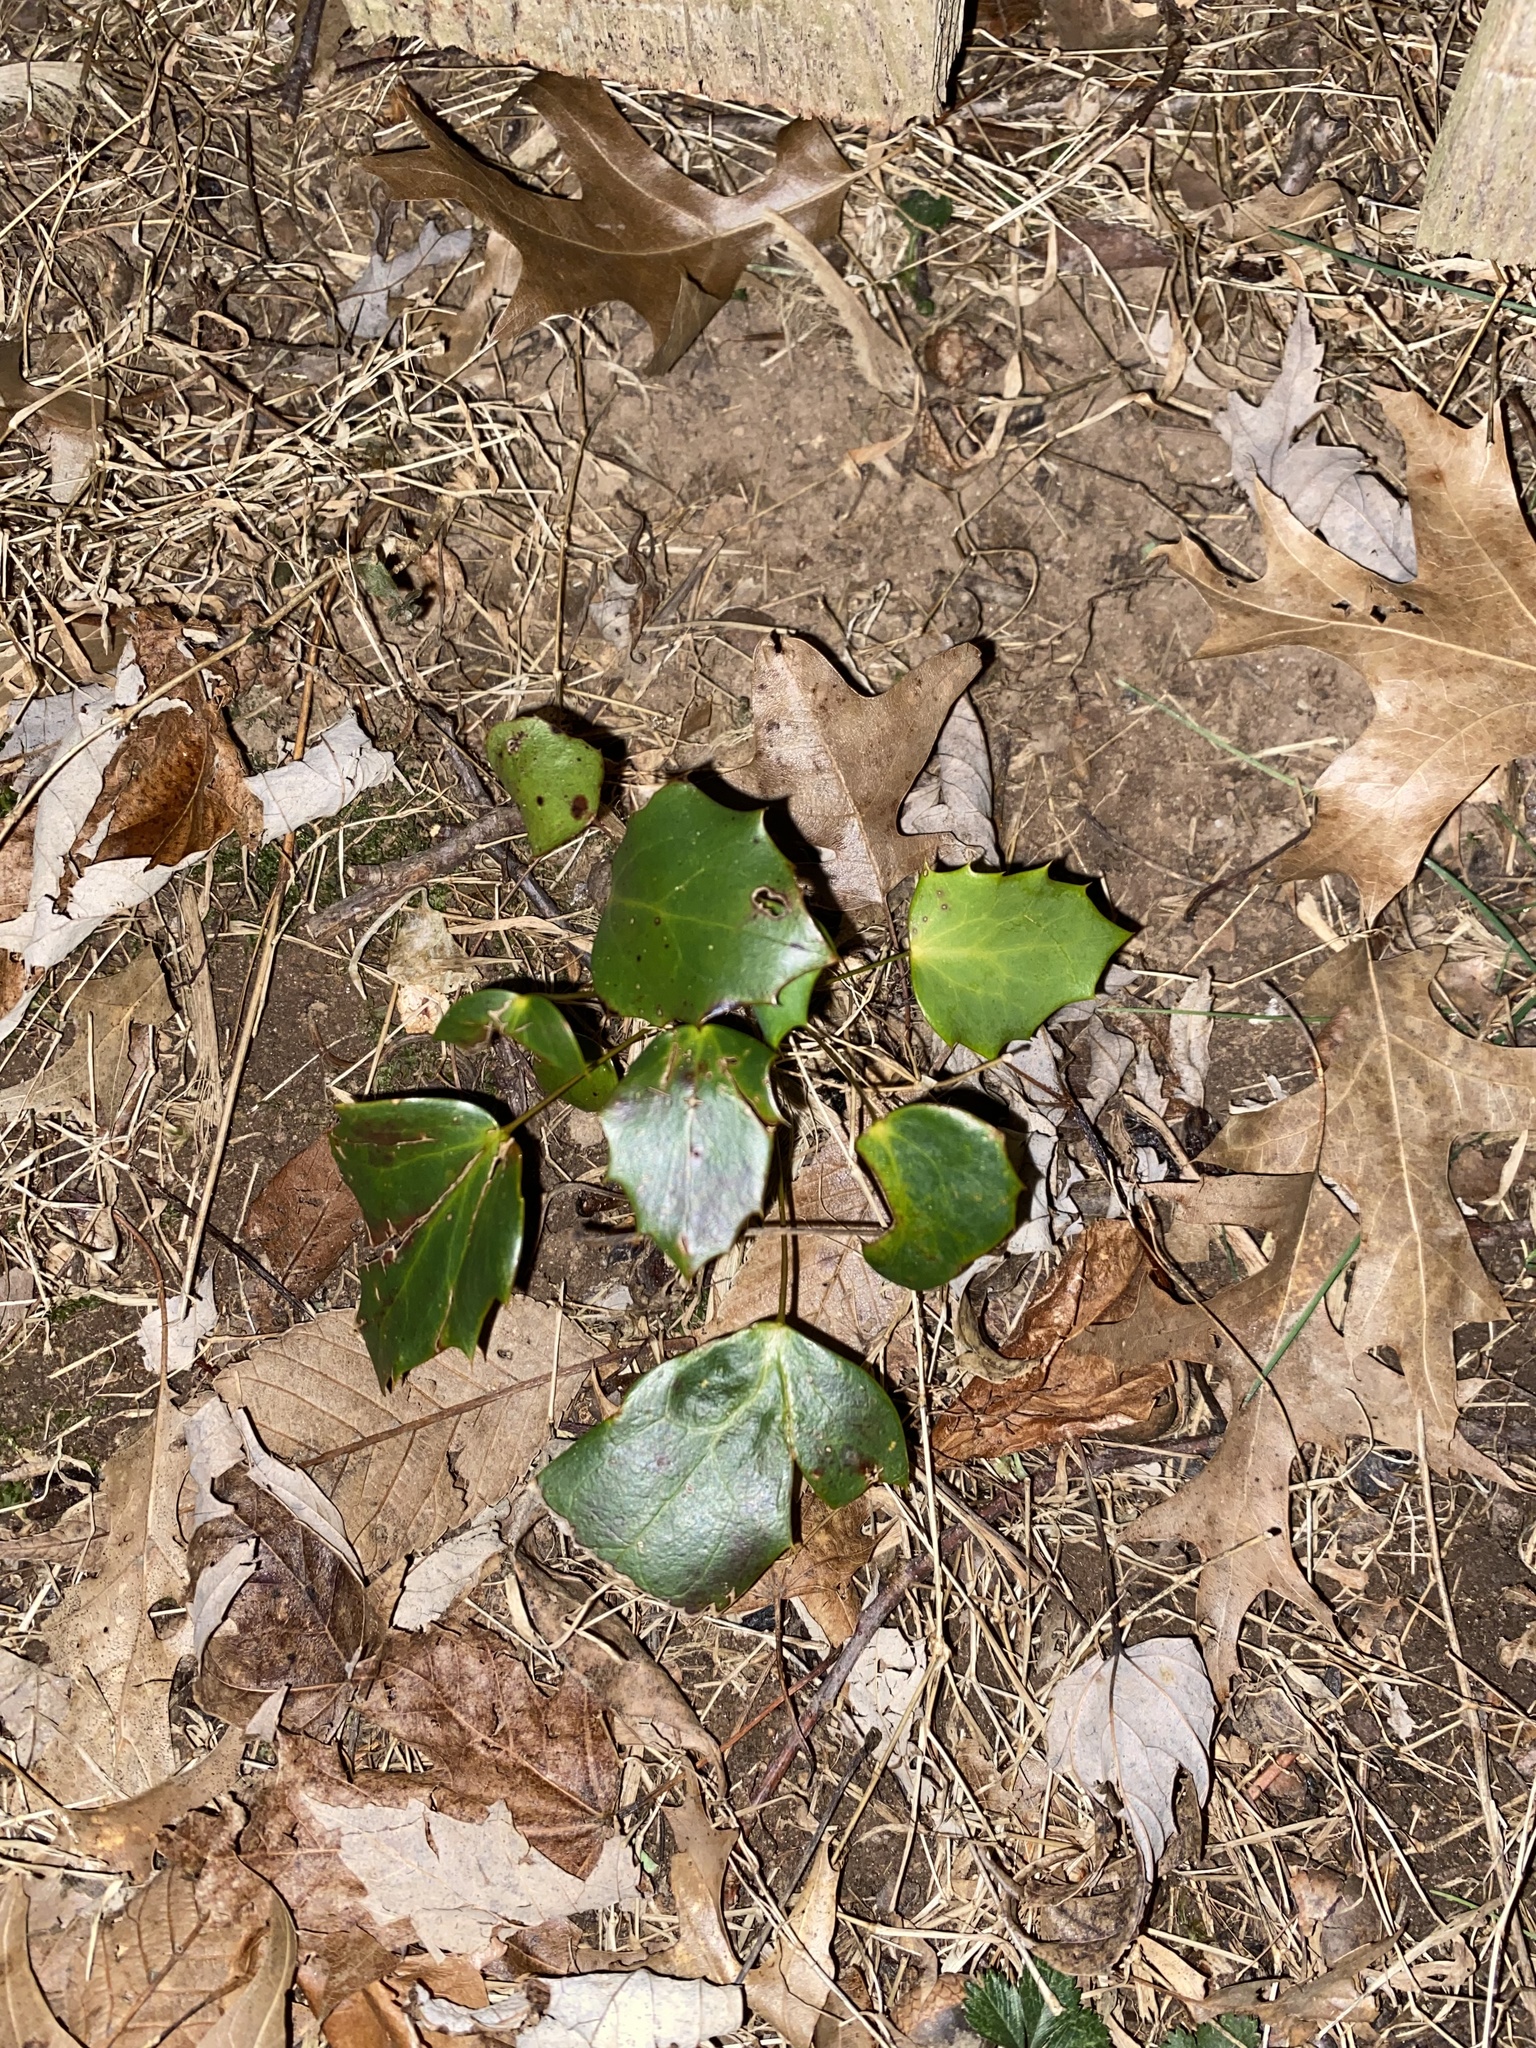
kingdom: Plantae
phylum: Tracheophyta
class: Magnoliopsida
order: Ranunculales
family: Berberidaceae
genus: Mahonia
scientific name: Mahonia bealei
